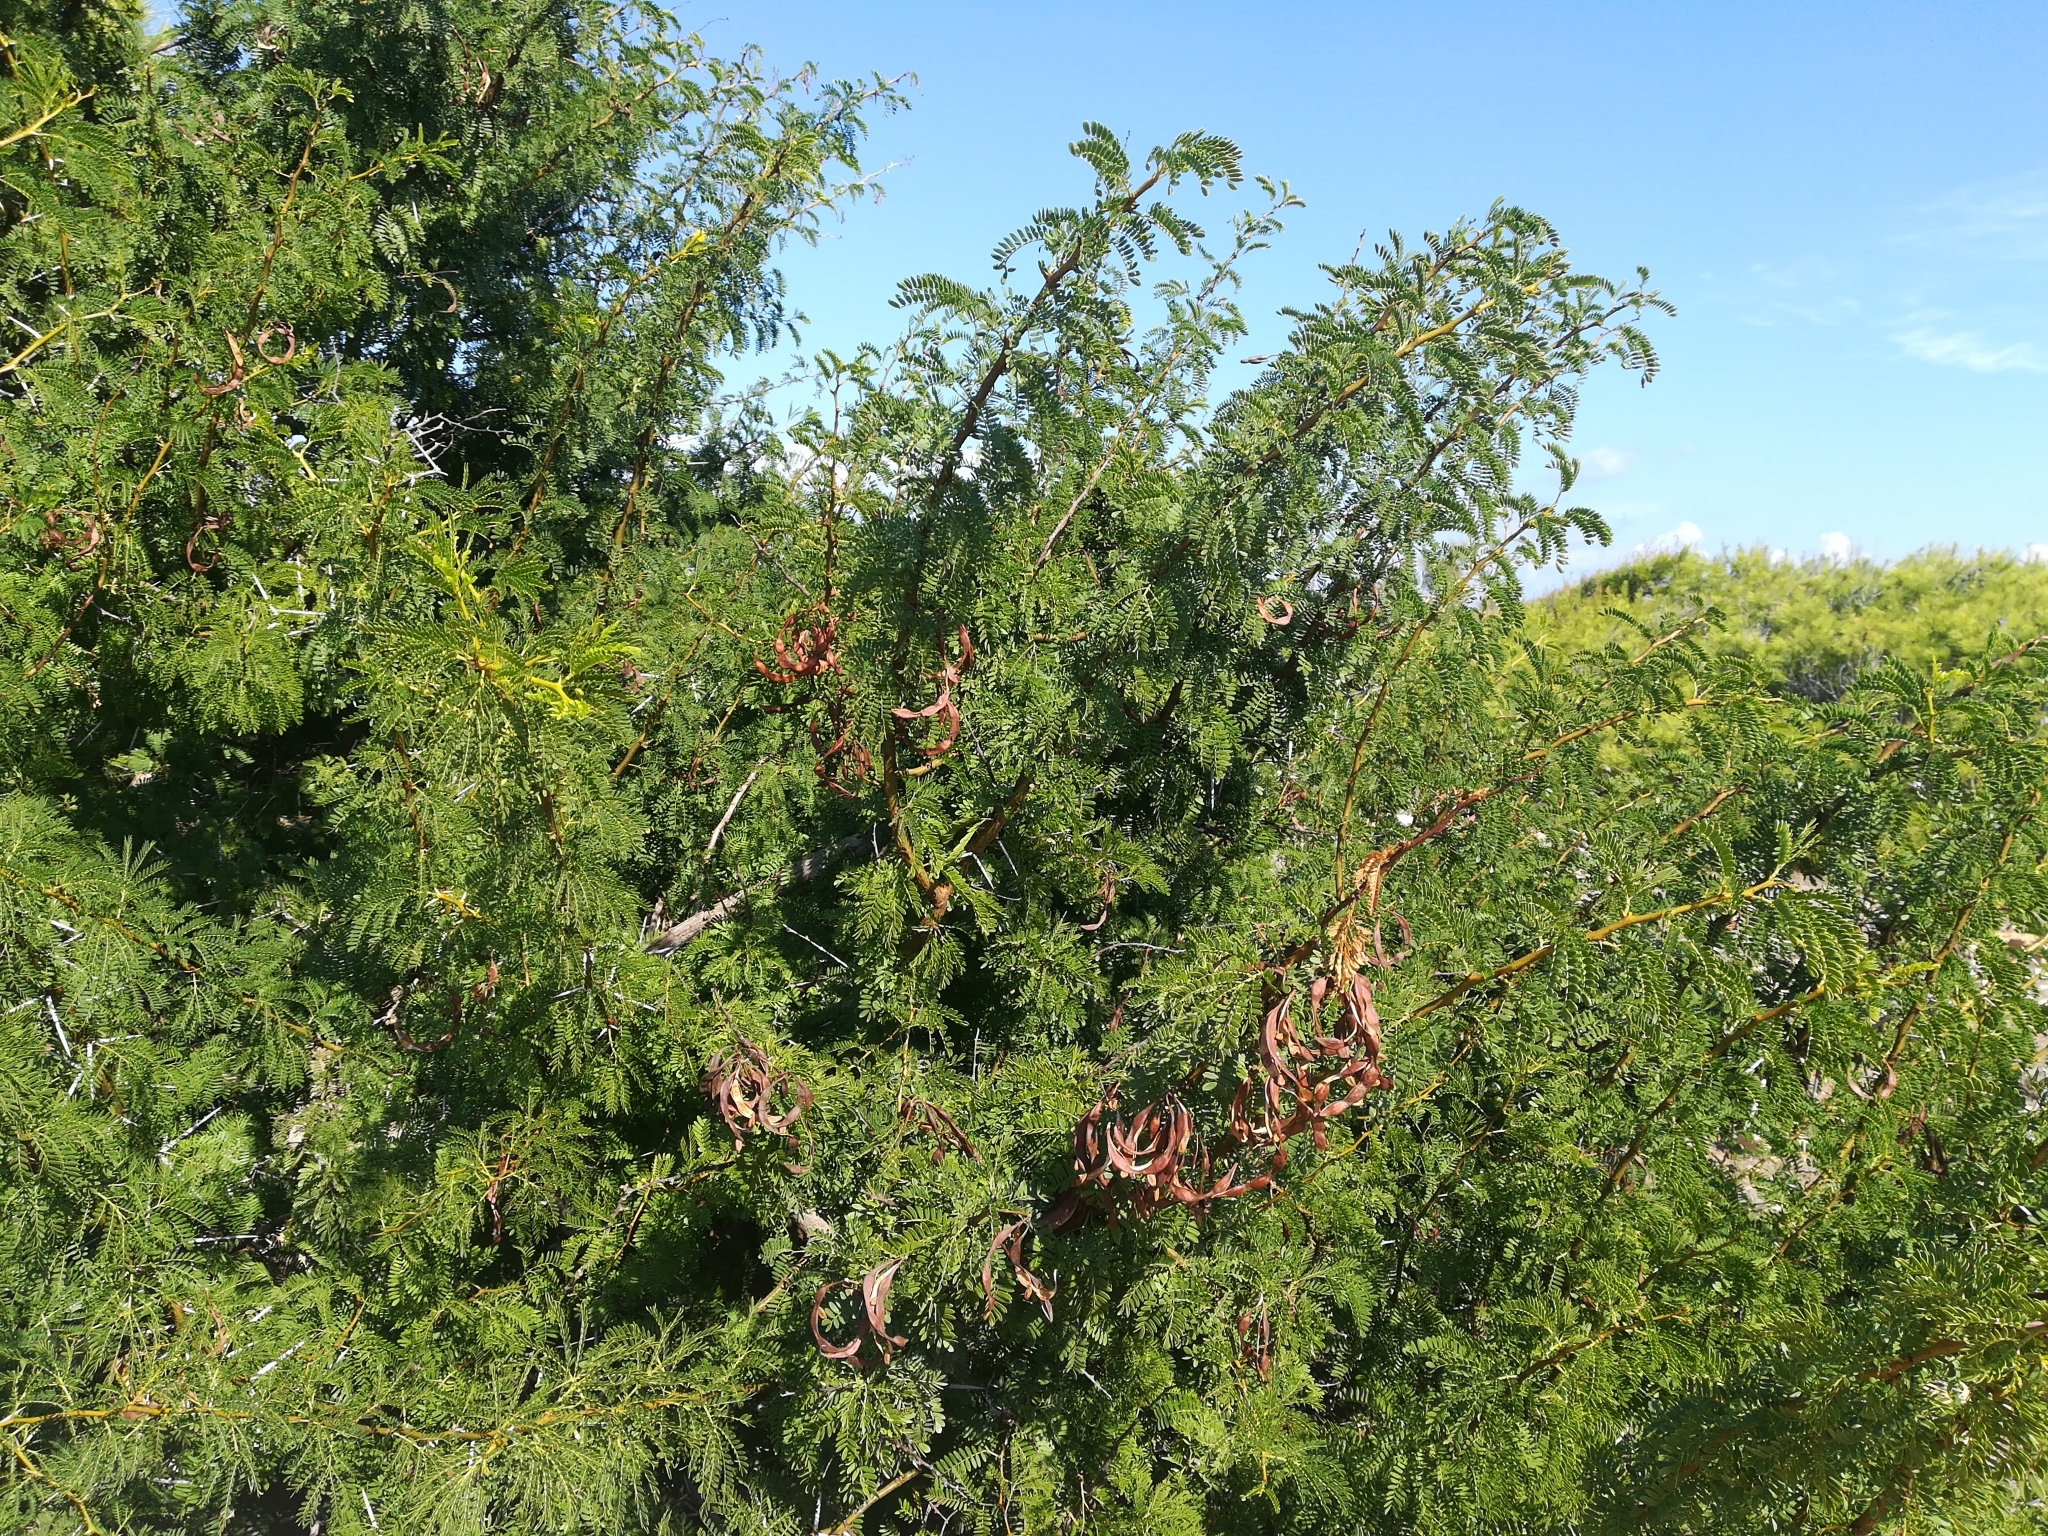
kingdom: Plantae
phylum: Tracheophyta
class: Magnoliopsida
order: Fabales
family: Fabaceae
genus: Vachellia
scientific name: Vachellia karroo
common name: Sweet thorn
